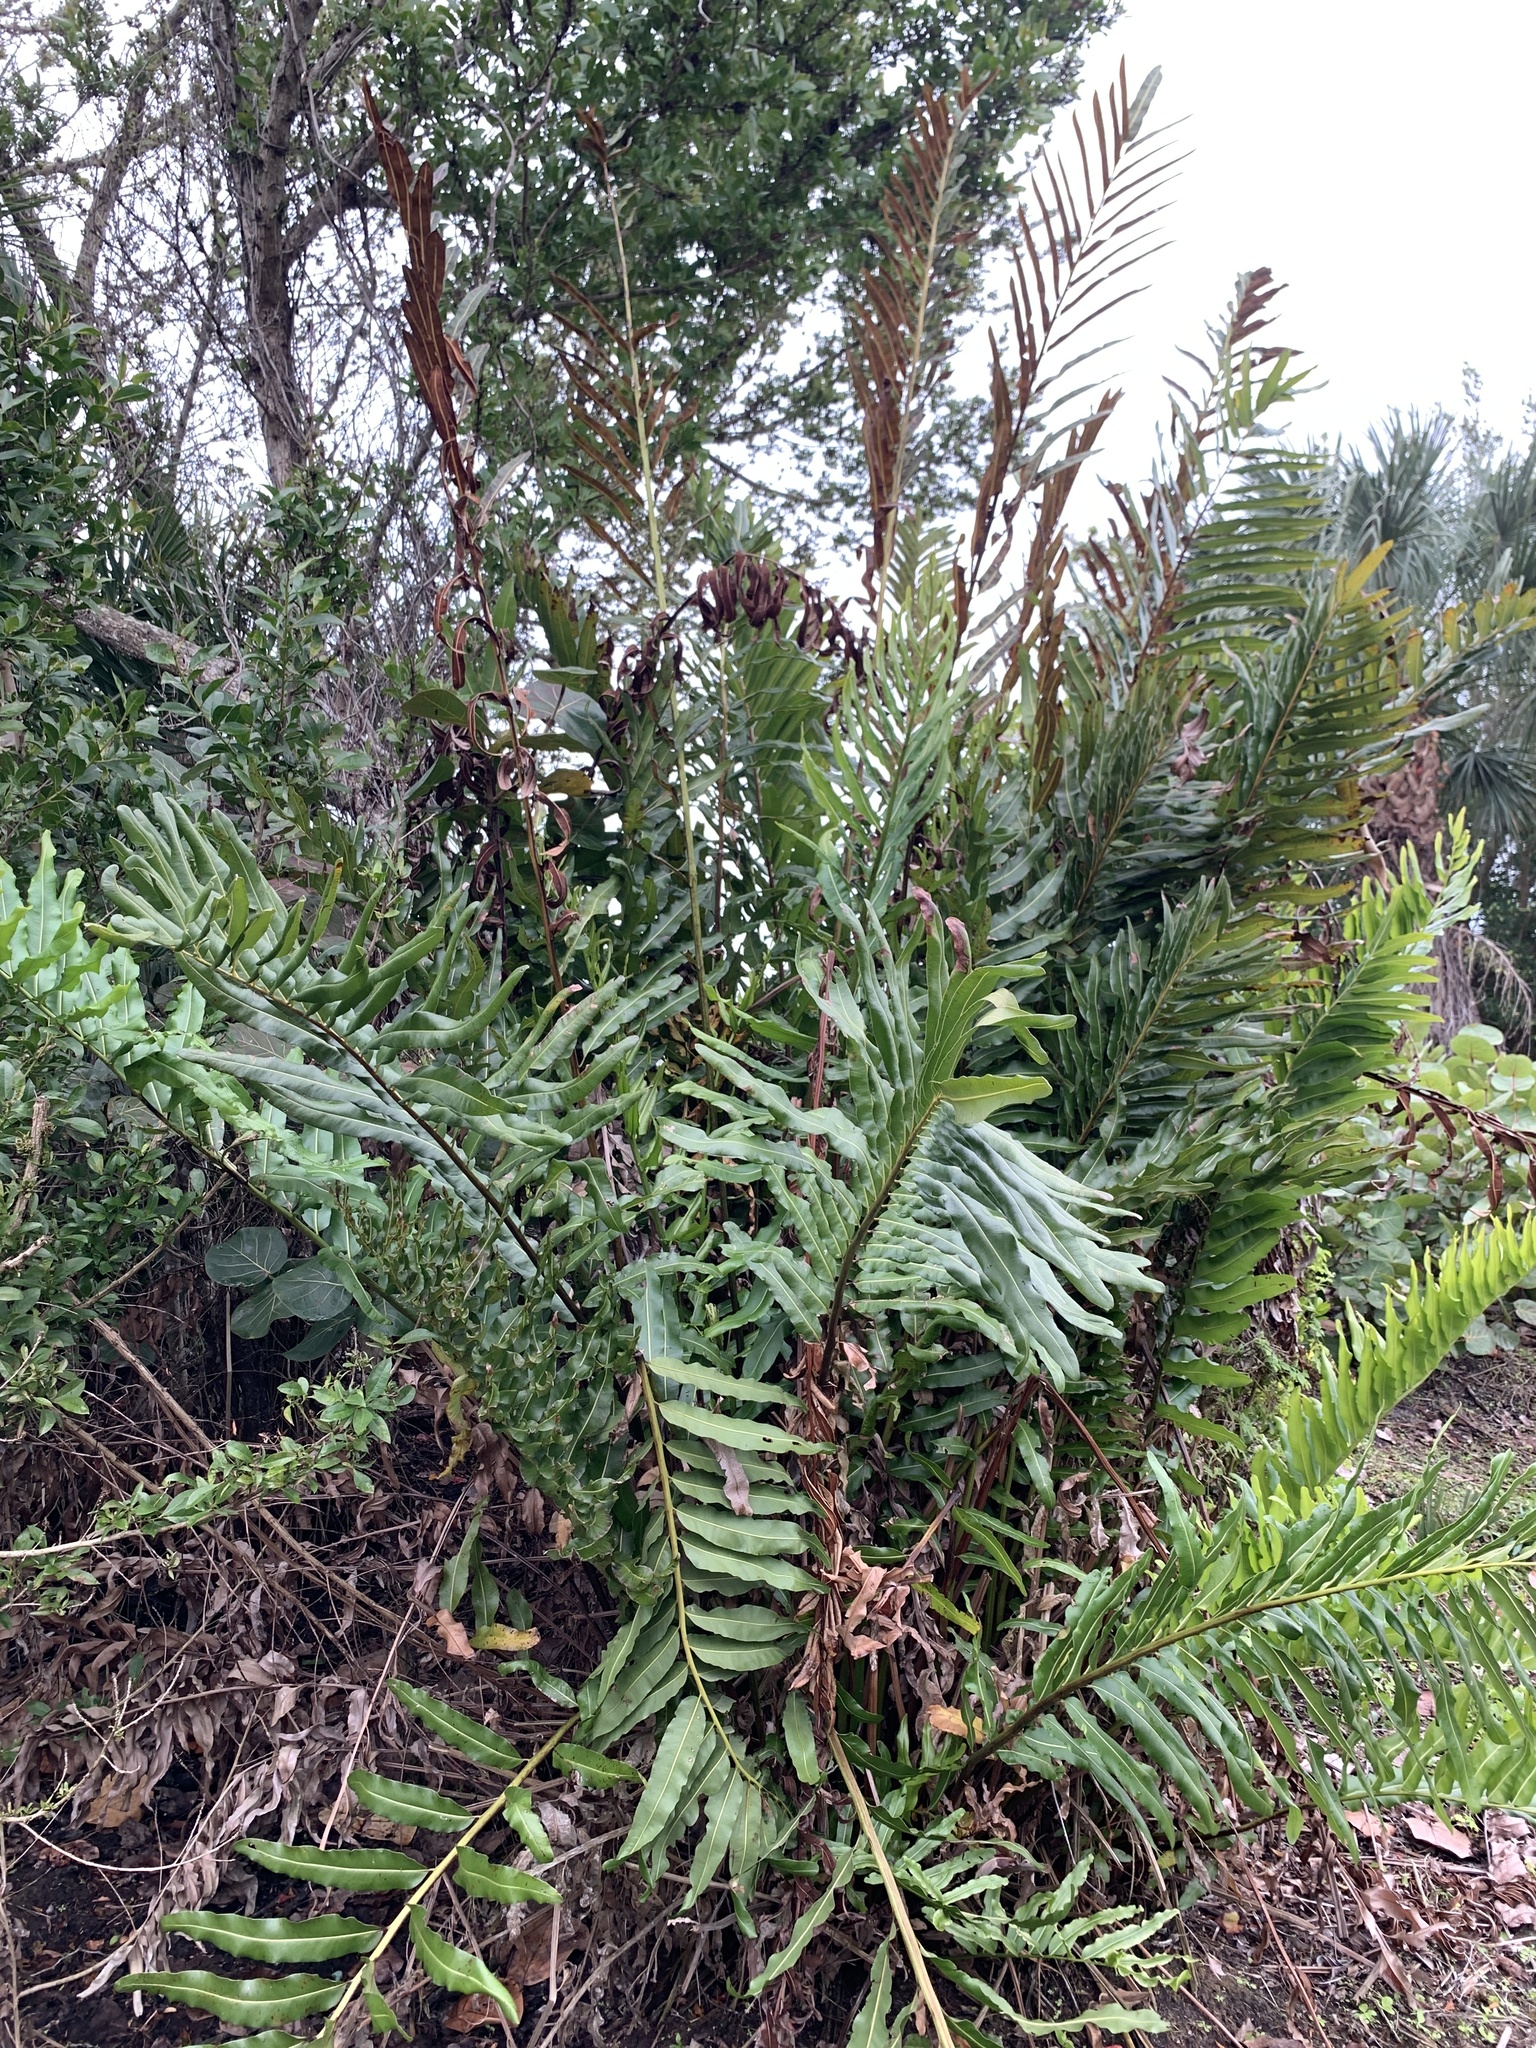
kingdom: Plantae
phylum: Tracheophyta
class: Polypodiopsida
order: Polypodiales
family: Pteridaceae
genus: Acrostichum
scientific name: Acrostichum danaeifolium
